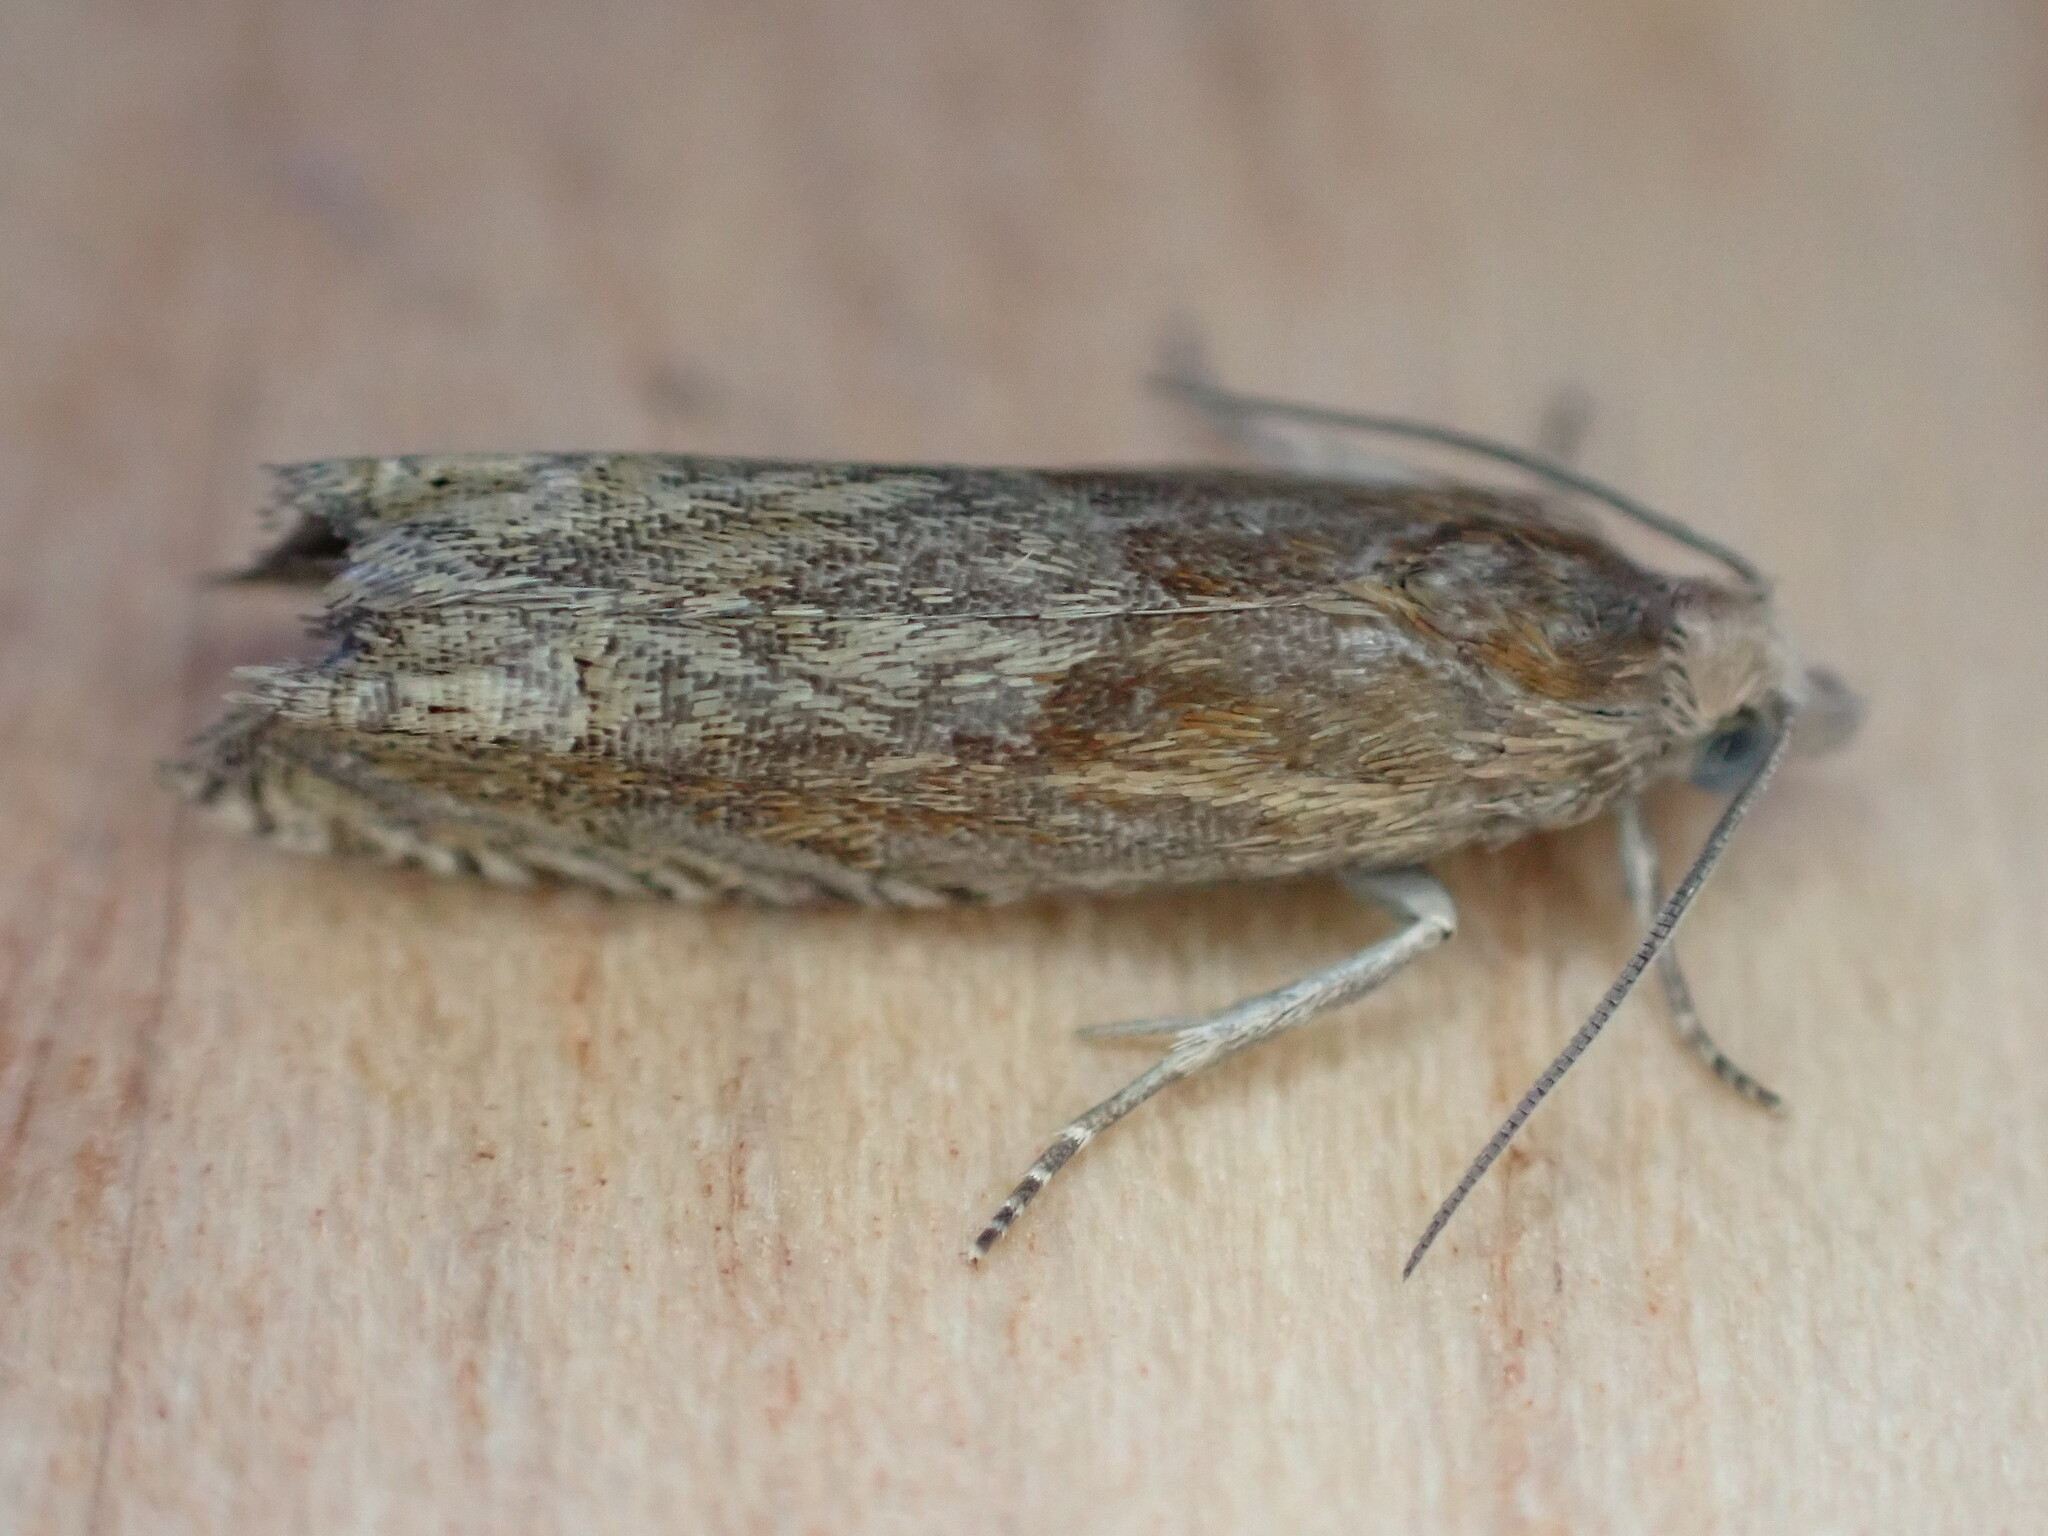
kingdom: Animalia
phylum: Arthropoda
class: Insecta
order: Lepidoptera
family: Tortricidae
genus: Eucosma
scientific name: Eucosma cana
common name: Hoary belle
